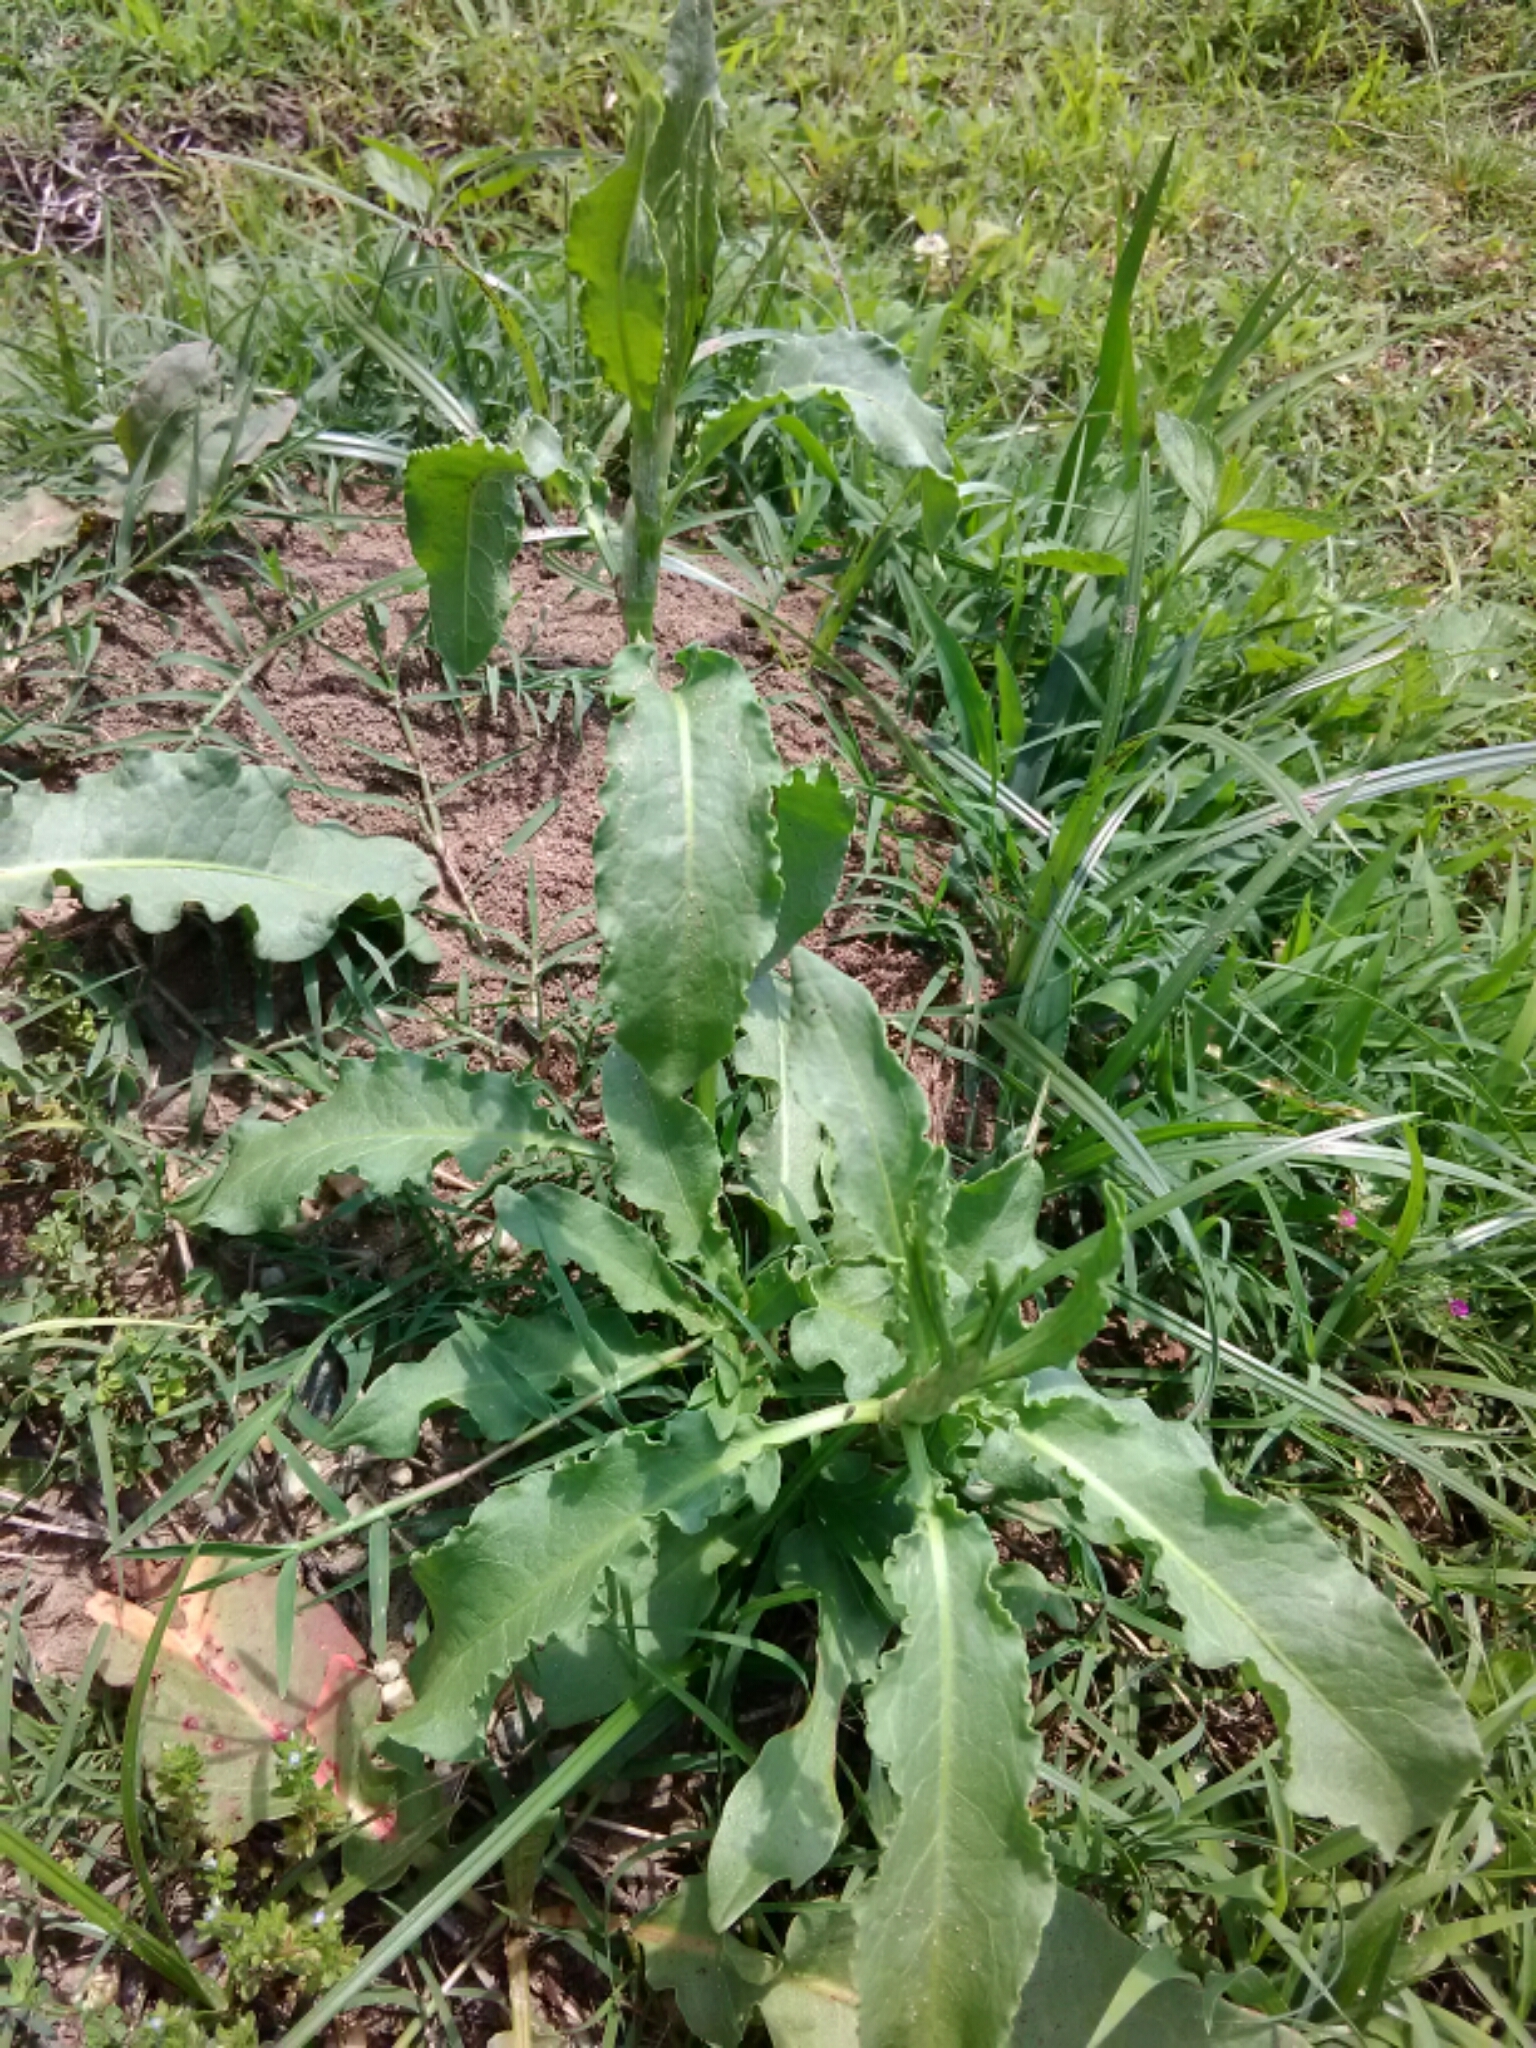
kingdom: Plantae
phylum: Tracheophyta
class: Magnoliopsida
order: Caryophyllales
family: Polygonaceae
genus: Rumex
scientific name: Rumex crispus
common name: Curled dock
